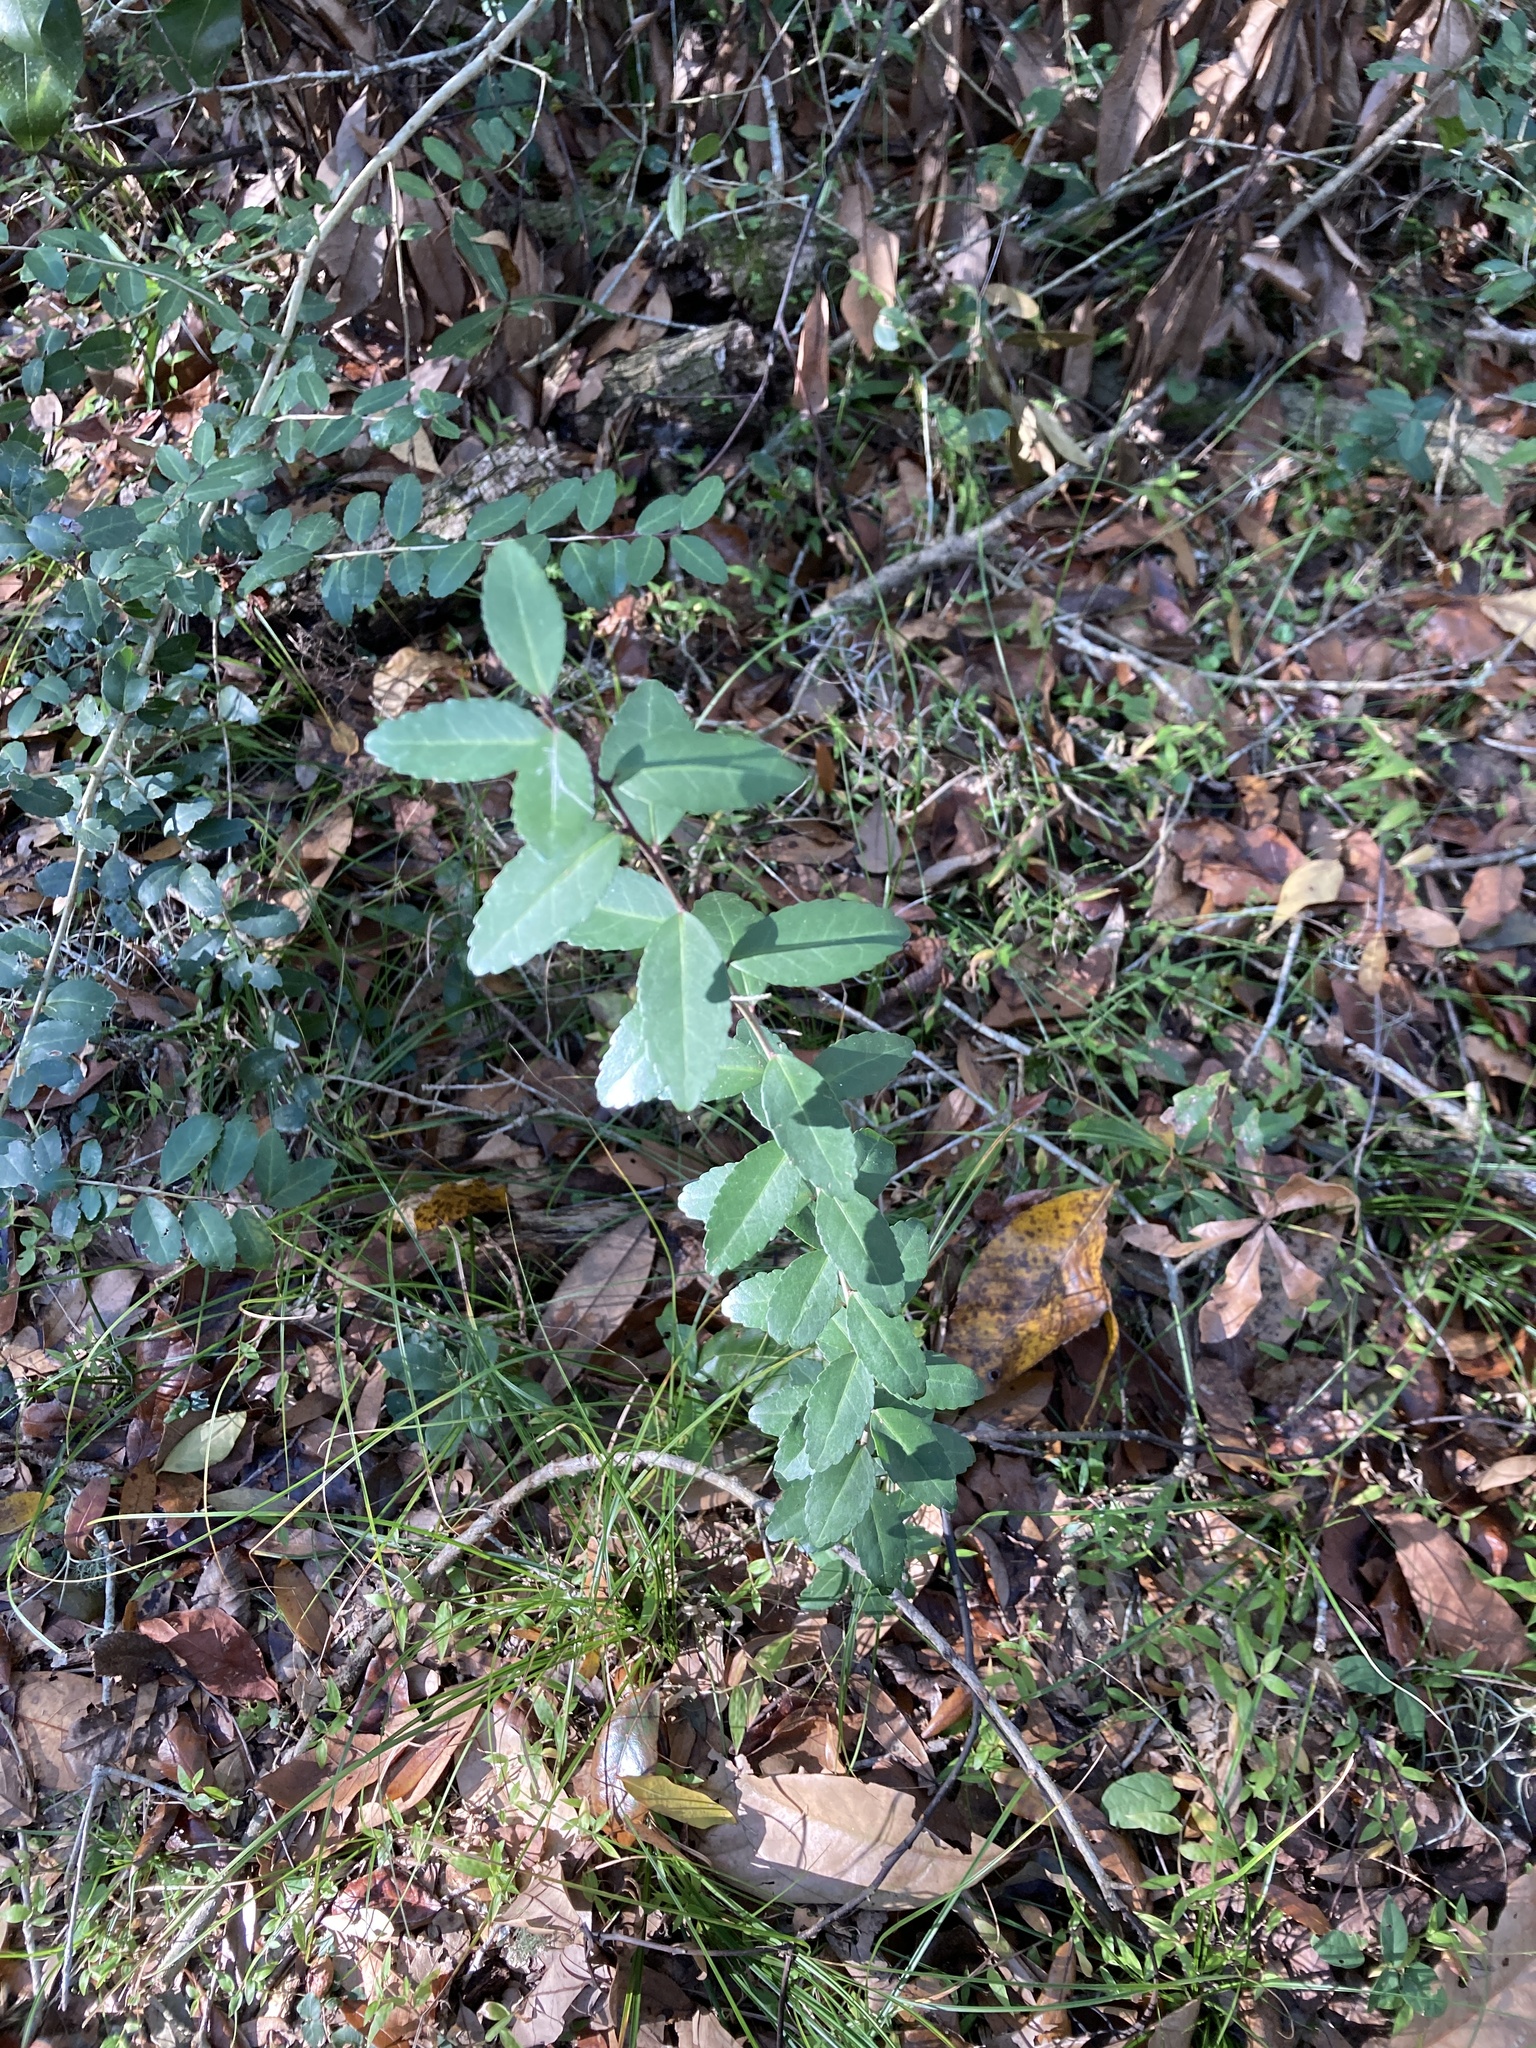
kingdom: Plantae
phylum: Tracheophyta
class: Magnoliopsida
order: Aquifoliales
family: Aquifoliaceae
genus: Ilex
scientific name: Ilex vomitoria
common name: Yaupon holly
